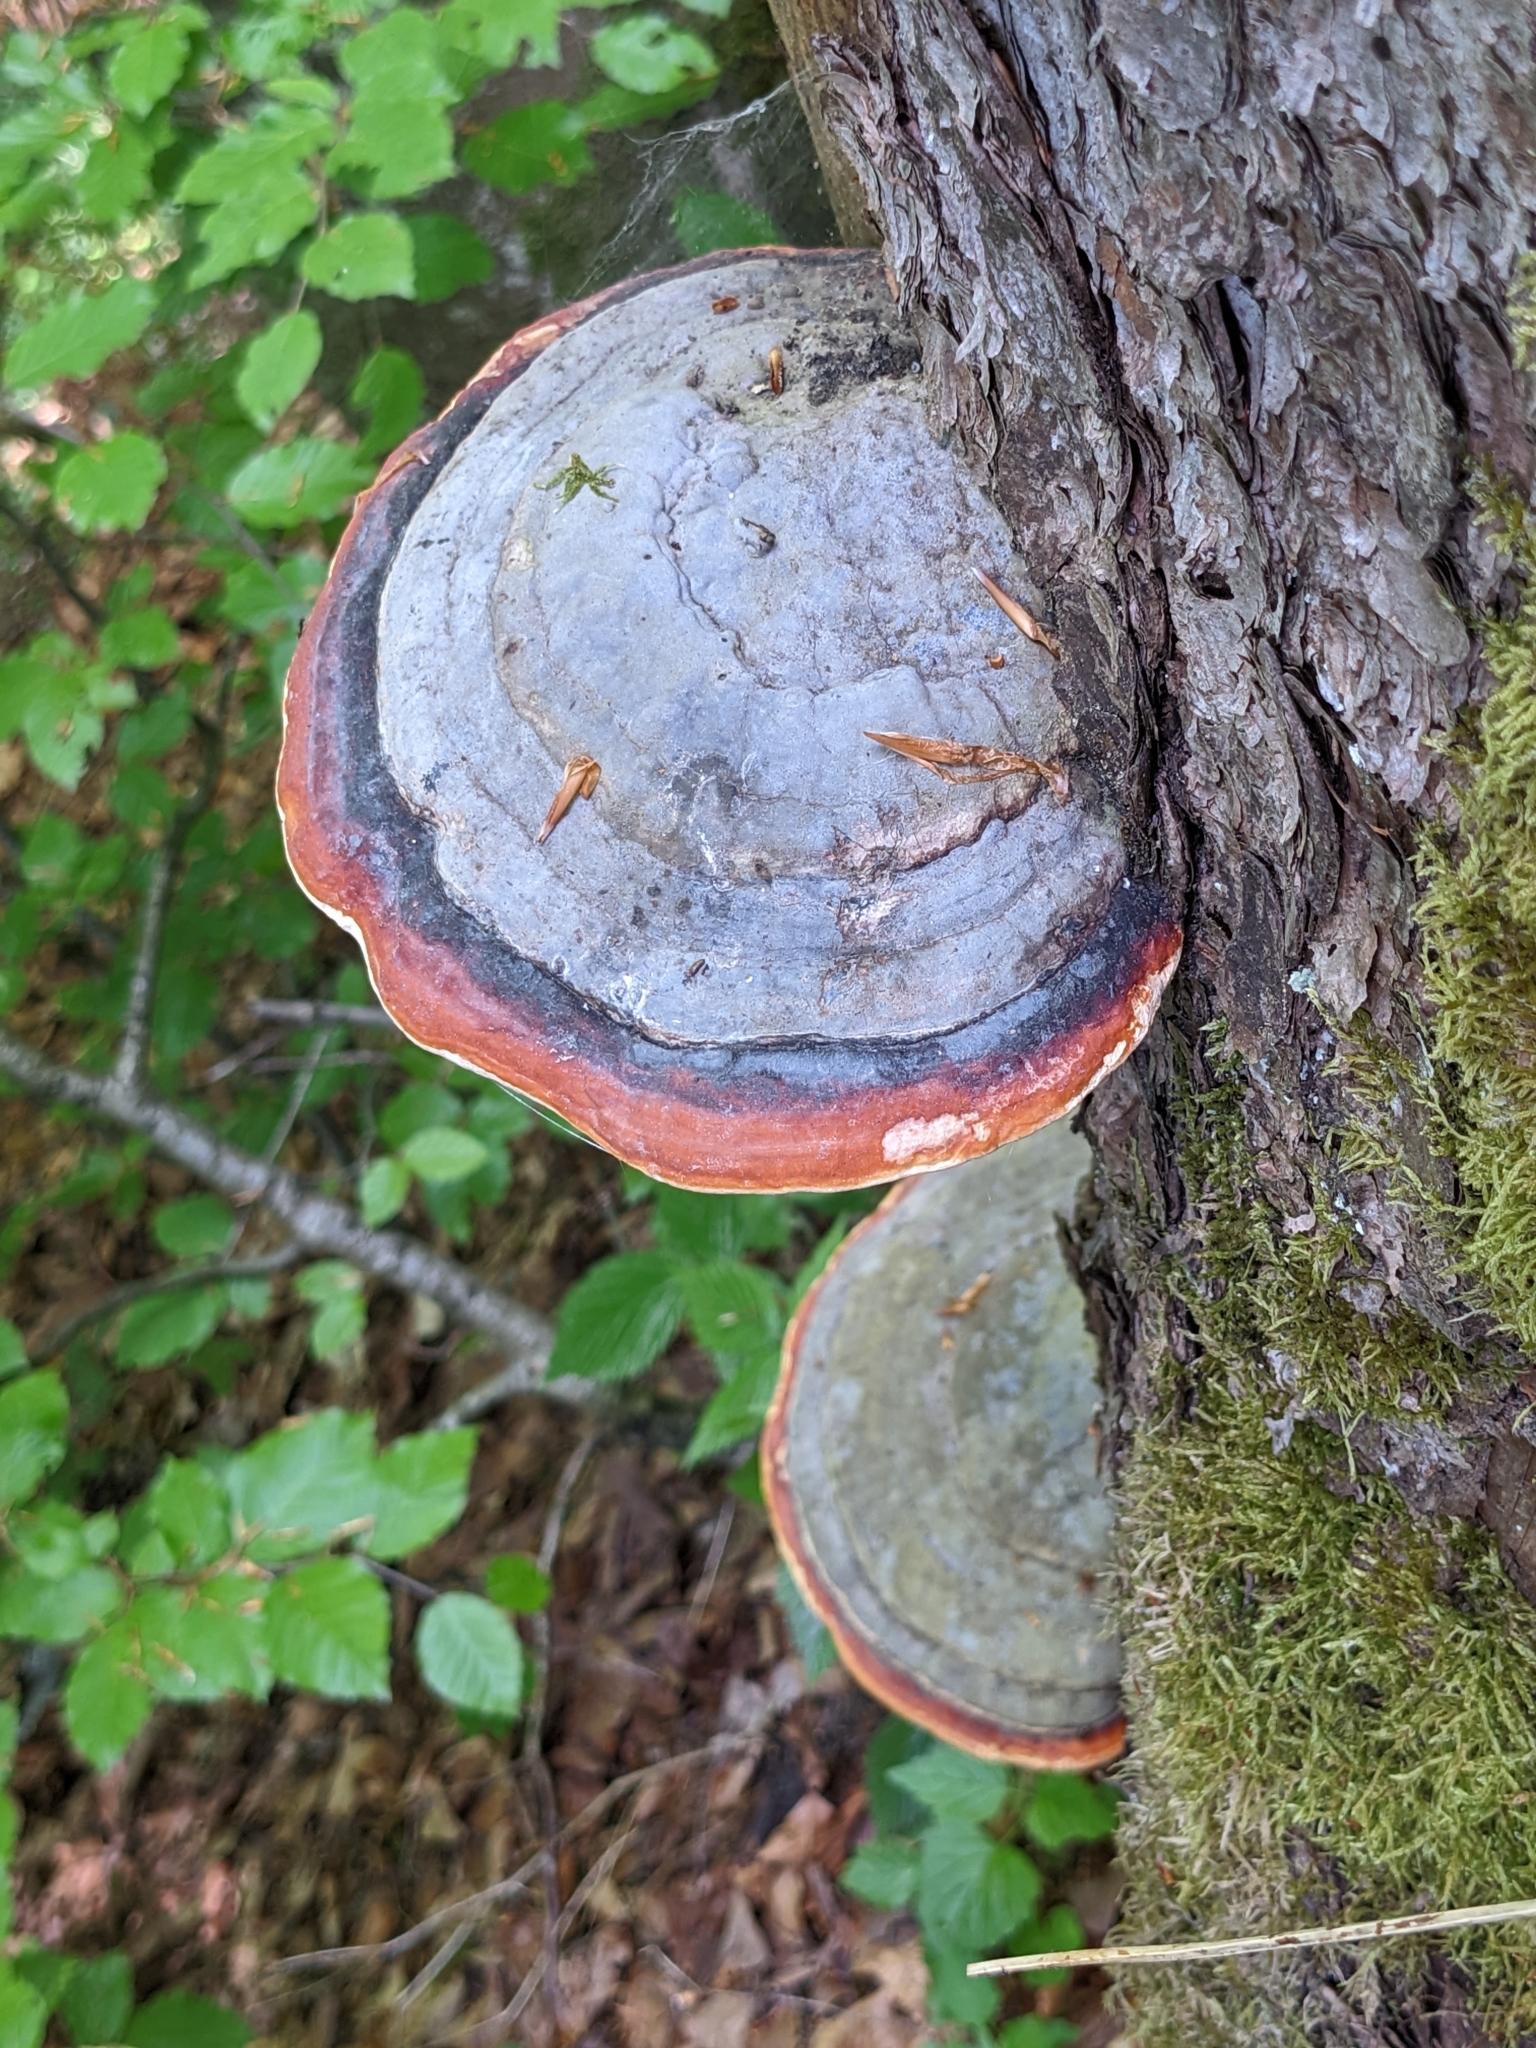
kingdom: Fungi
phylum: Basidiomycota
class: Agaricomycetes
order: Polyporales
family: Fomitopsidaceae
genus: Fomitopsis
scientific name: Fomitopsis pinicola
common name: Red-belted bracket
